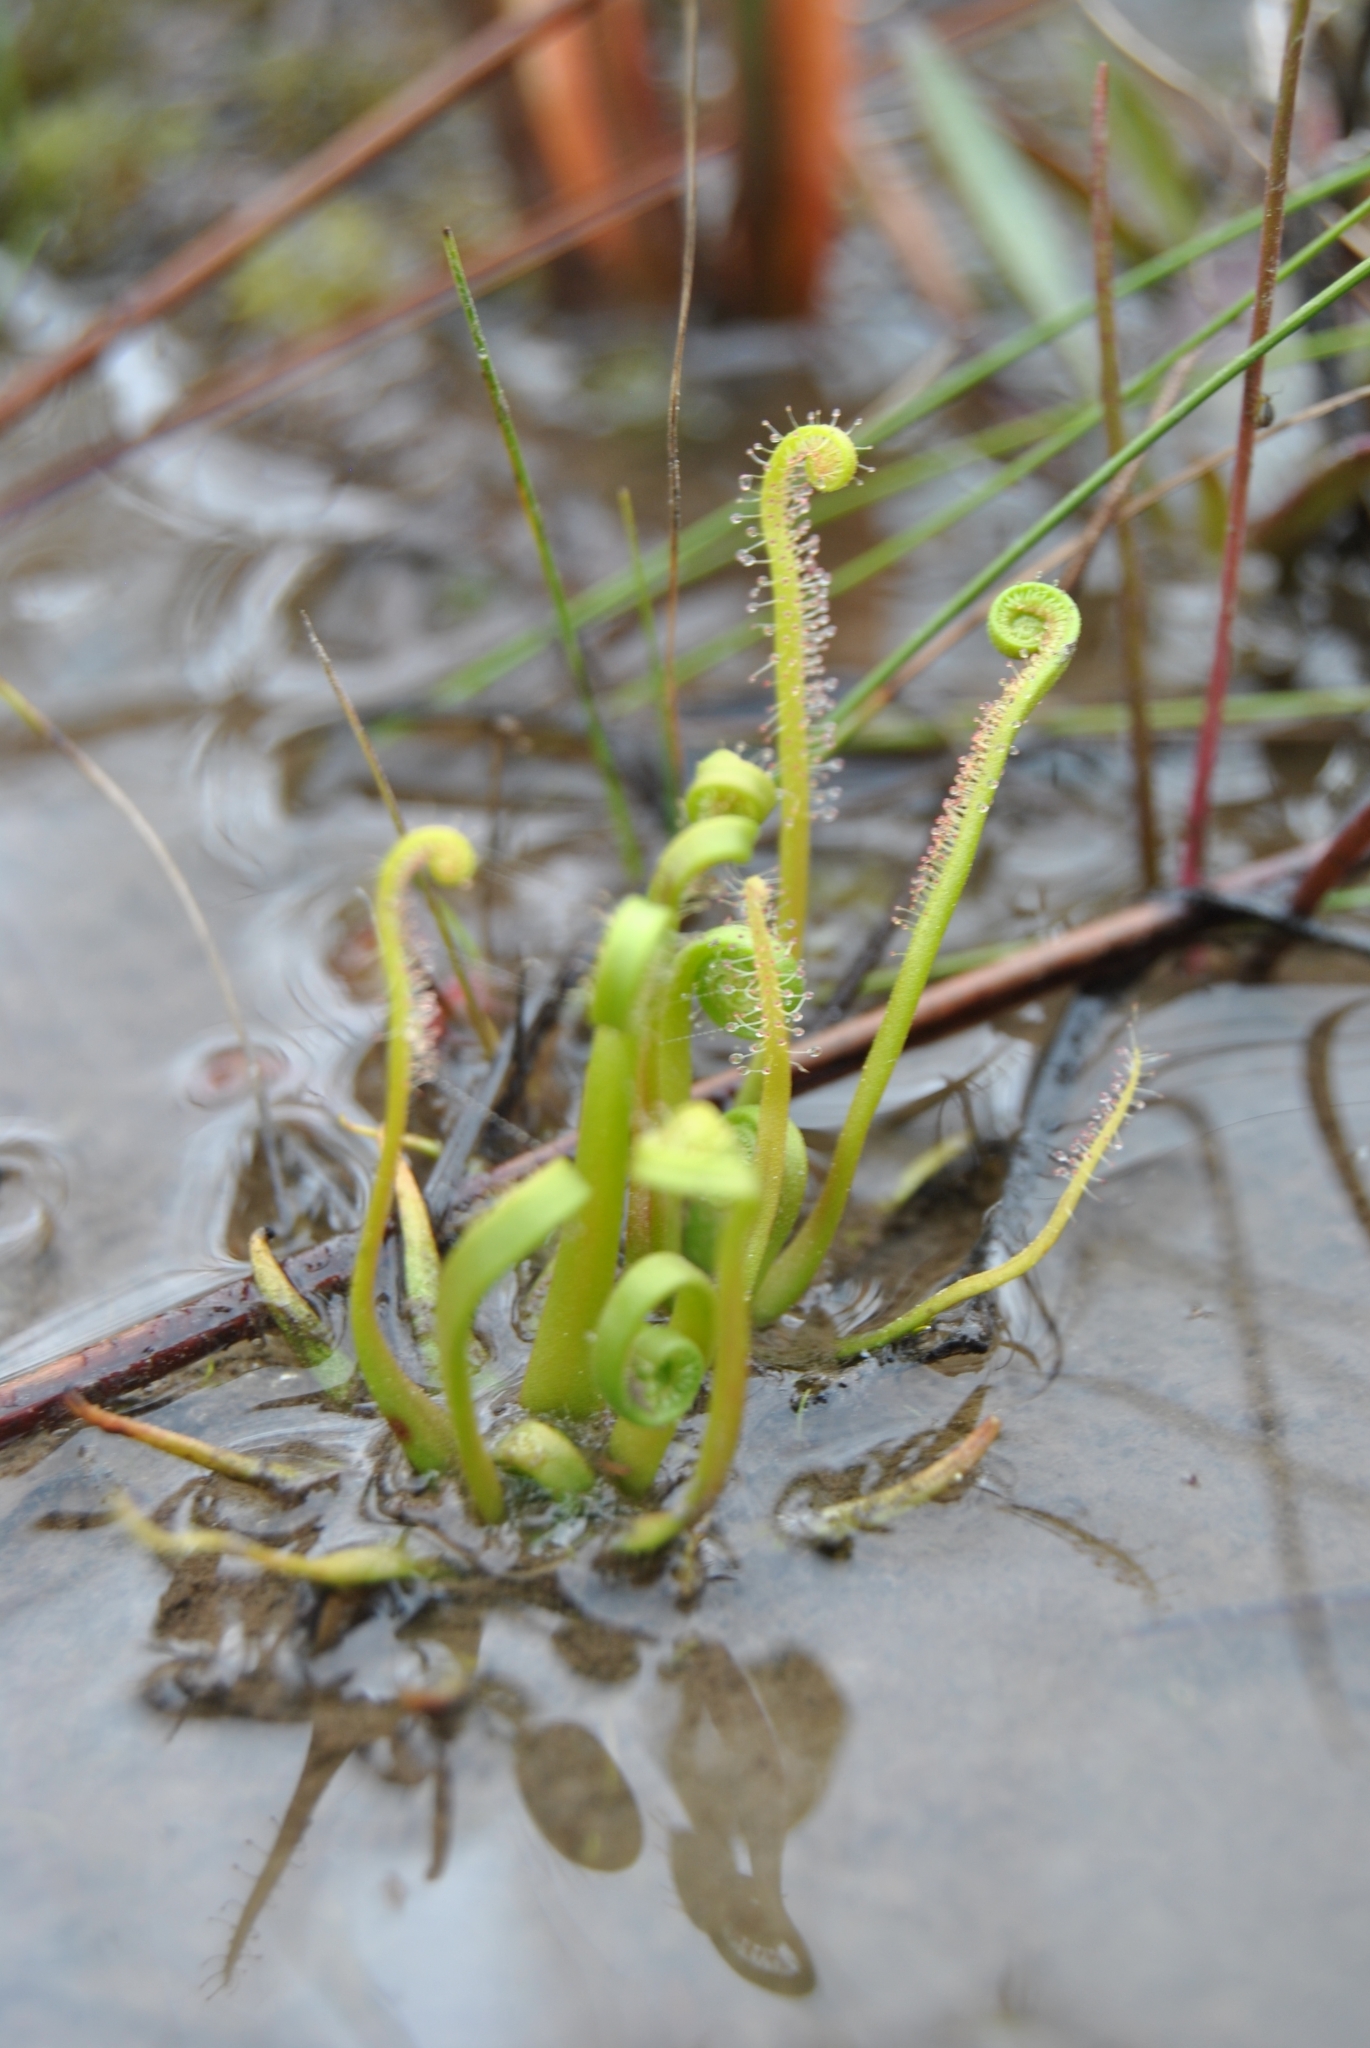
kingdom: Plantae
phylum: Tracheophyta
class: Magnoliopsida
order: Caryophyllales
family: Droseraceae
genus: Drosera
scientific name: Drosera filiformis
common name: Dew-thread
